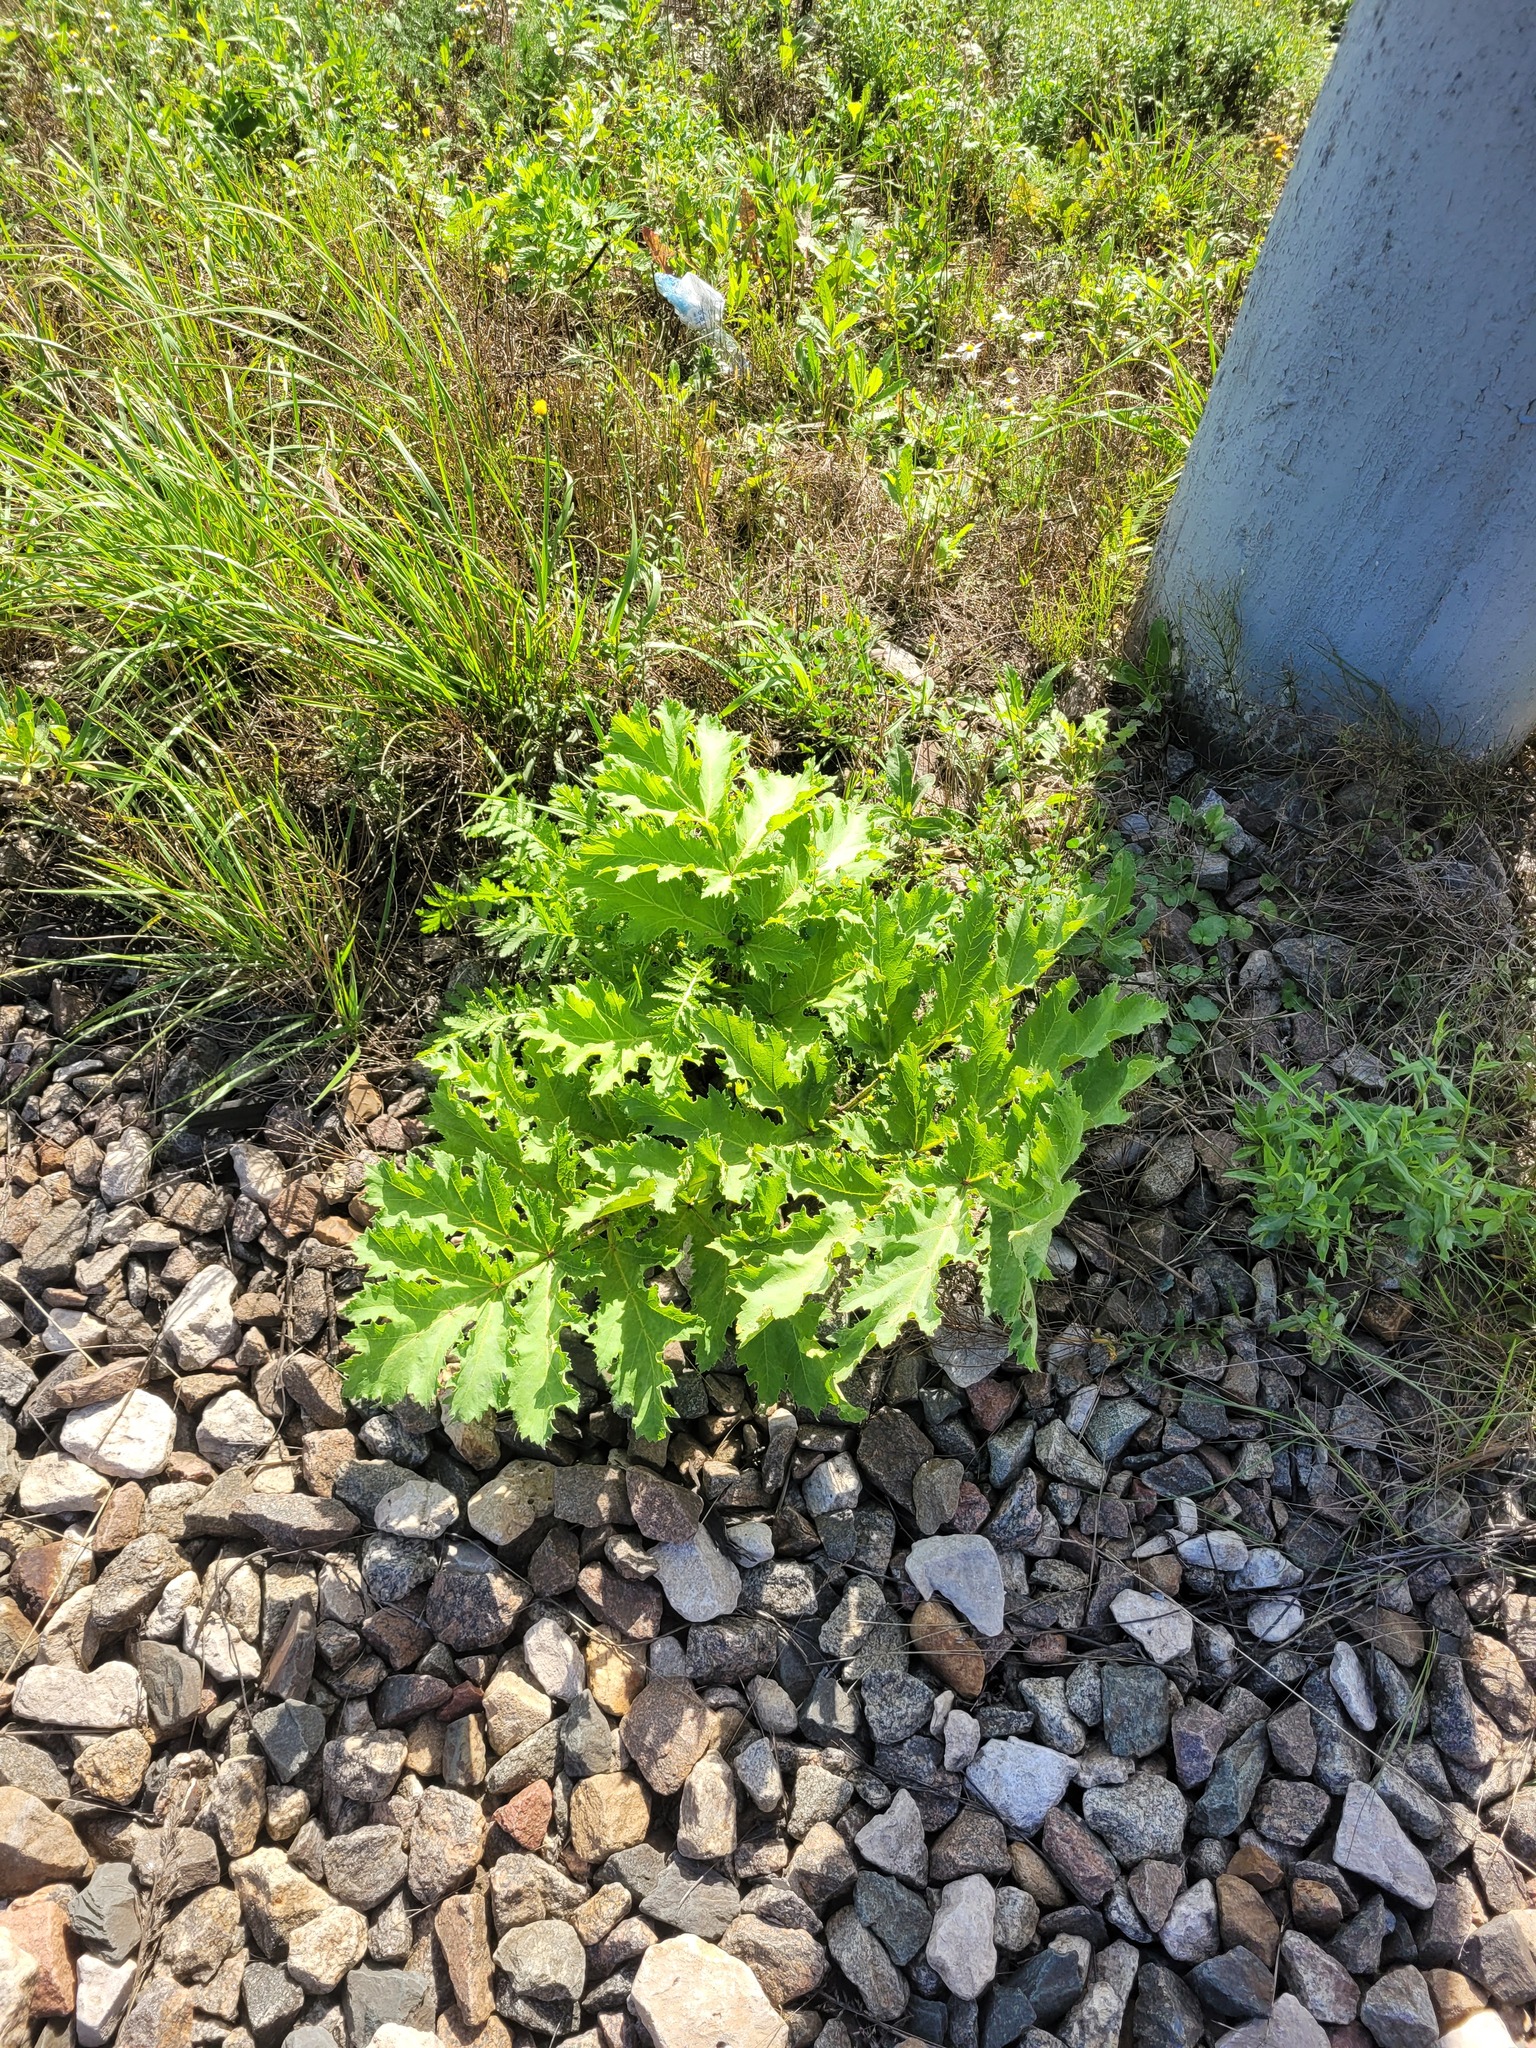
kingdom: Plantae
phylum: Tracheophyta
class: Magnoliopsida
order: Apiales
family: Apiaceae
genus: Heracleum
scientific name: Heracleum sosnowskyi
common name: Sosnowsky's hogweed
